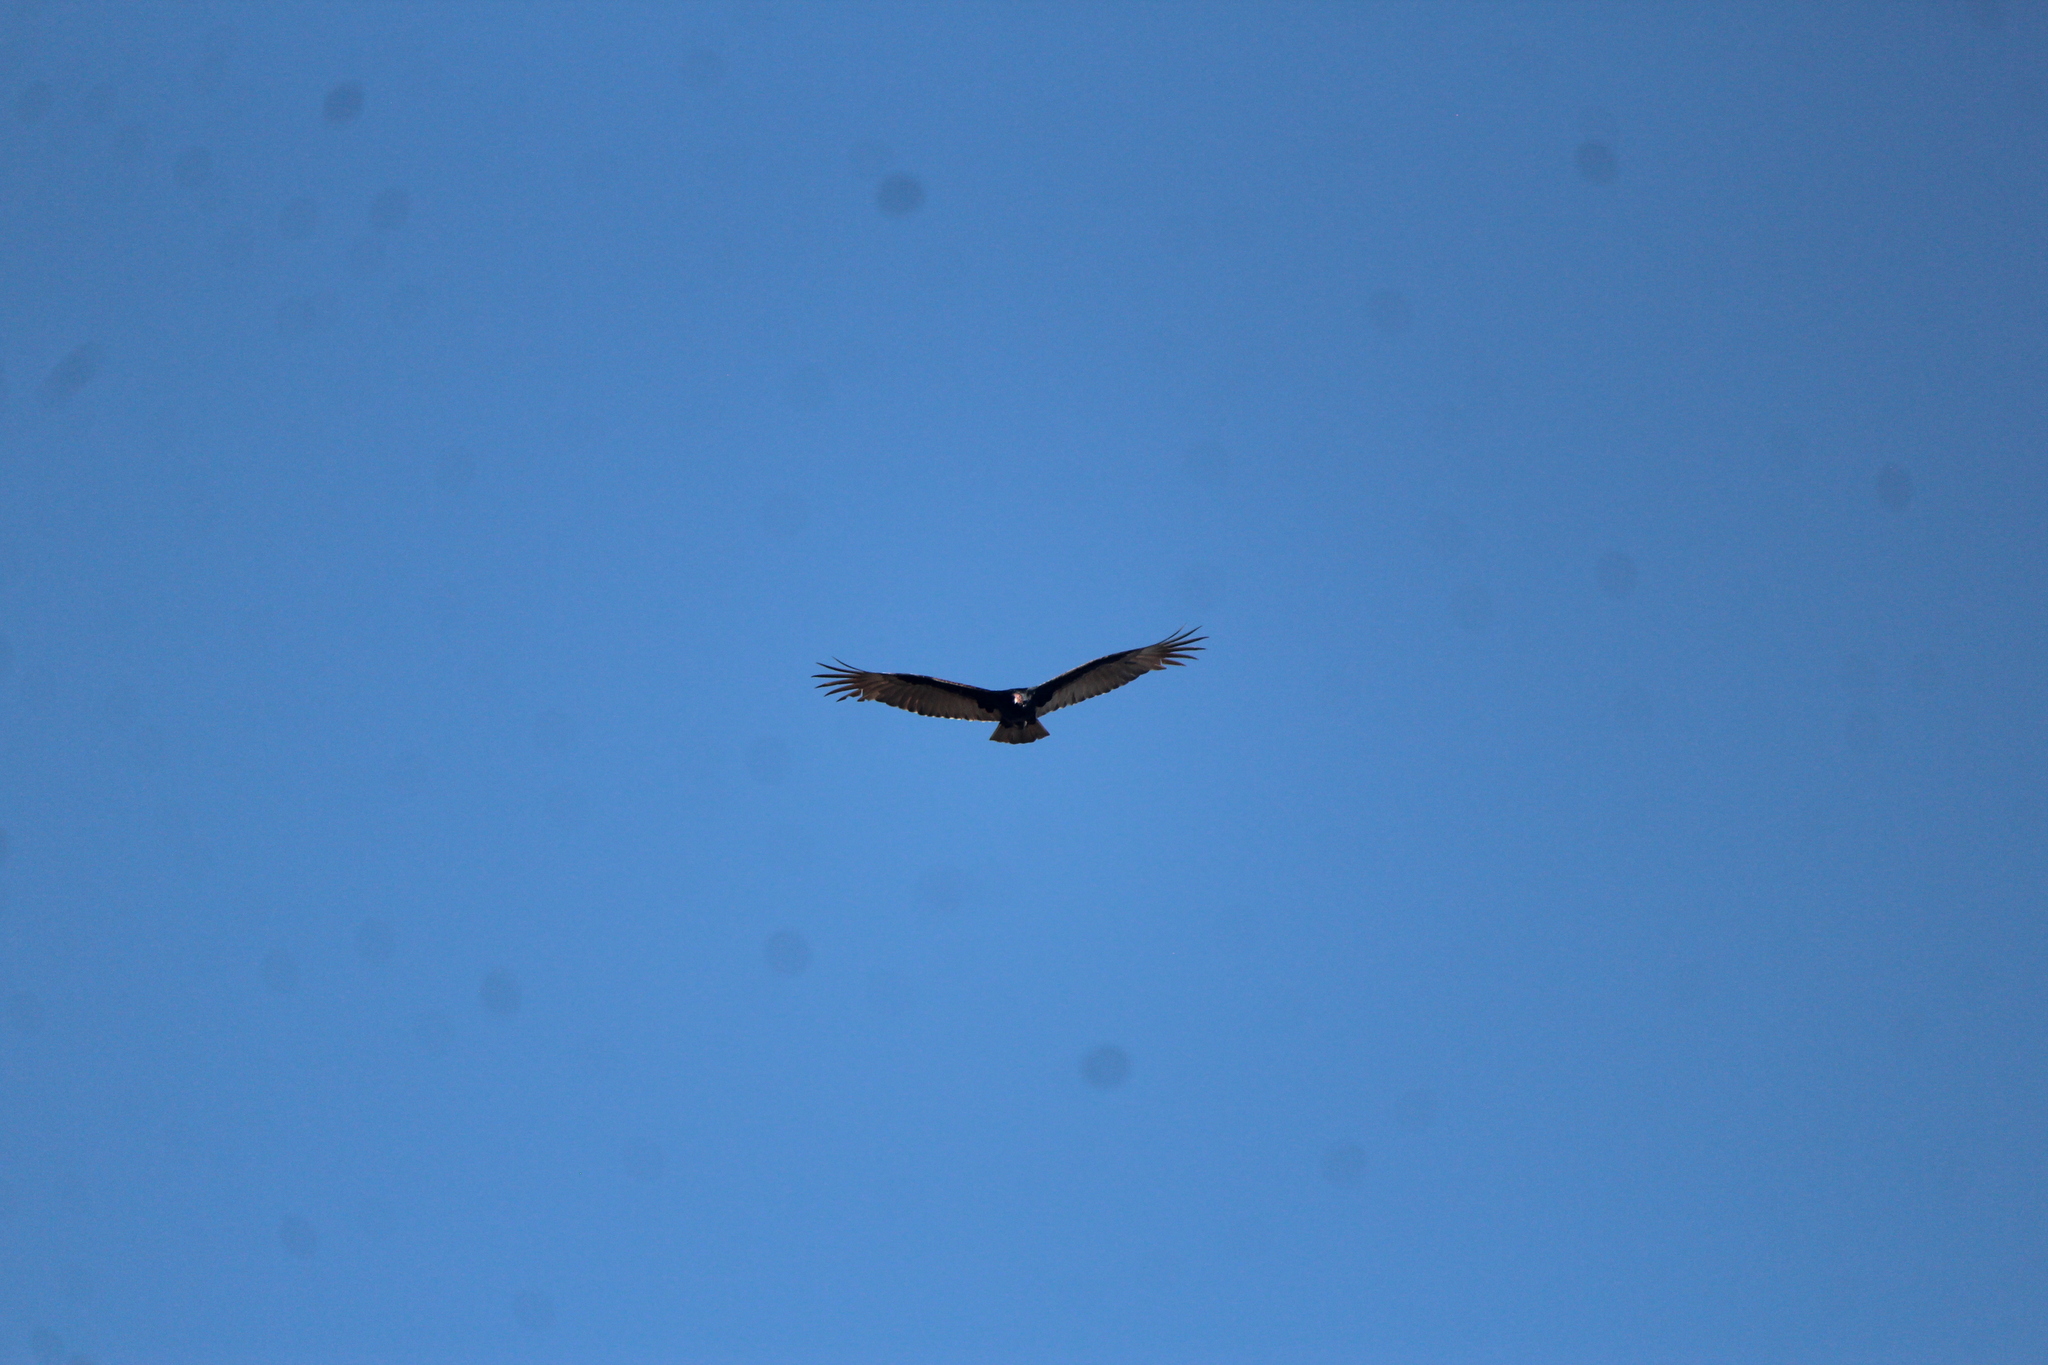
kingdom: Animalia
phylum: Chordata
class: Aves
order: Accipitriformes
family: Cathartidae
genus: Cathartes
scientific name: Cathartes aura
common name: Turkey vulture
